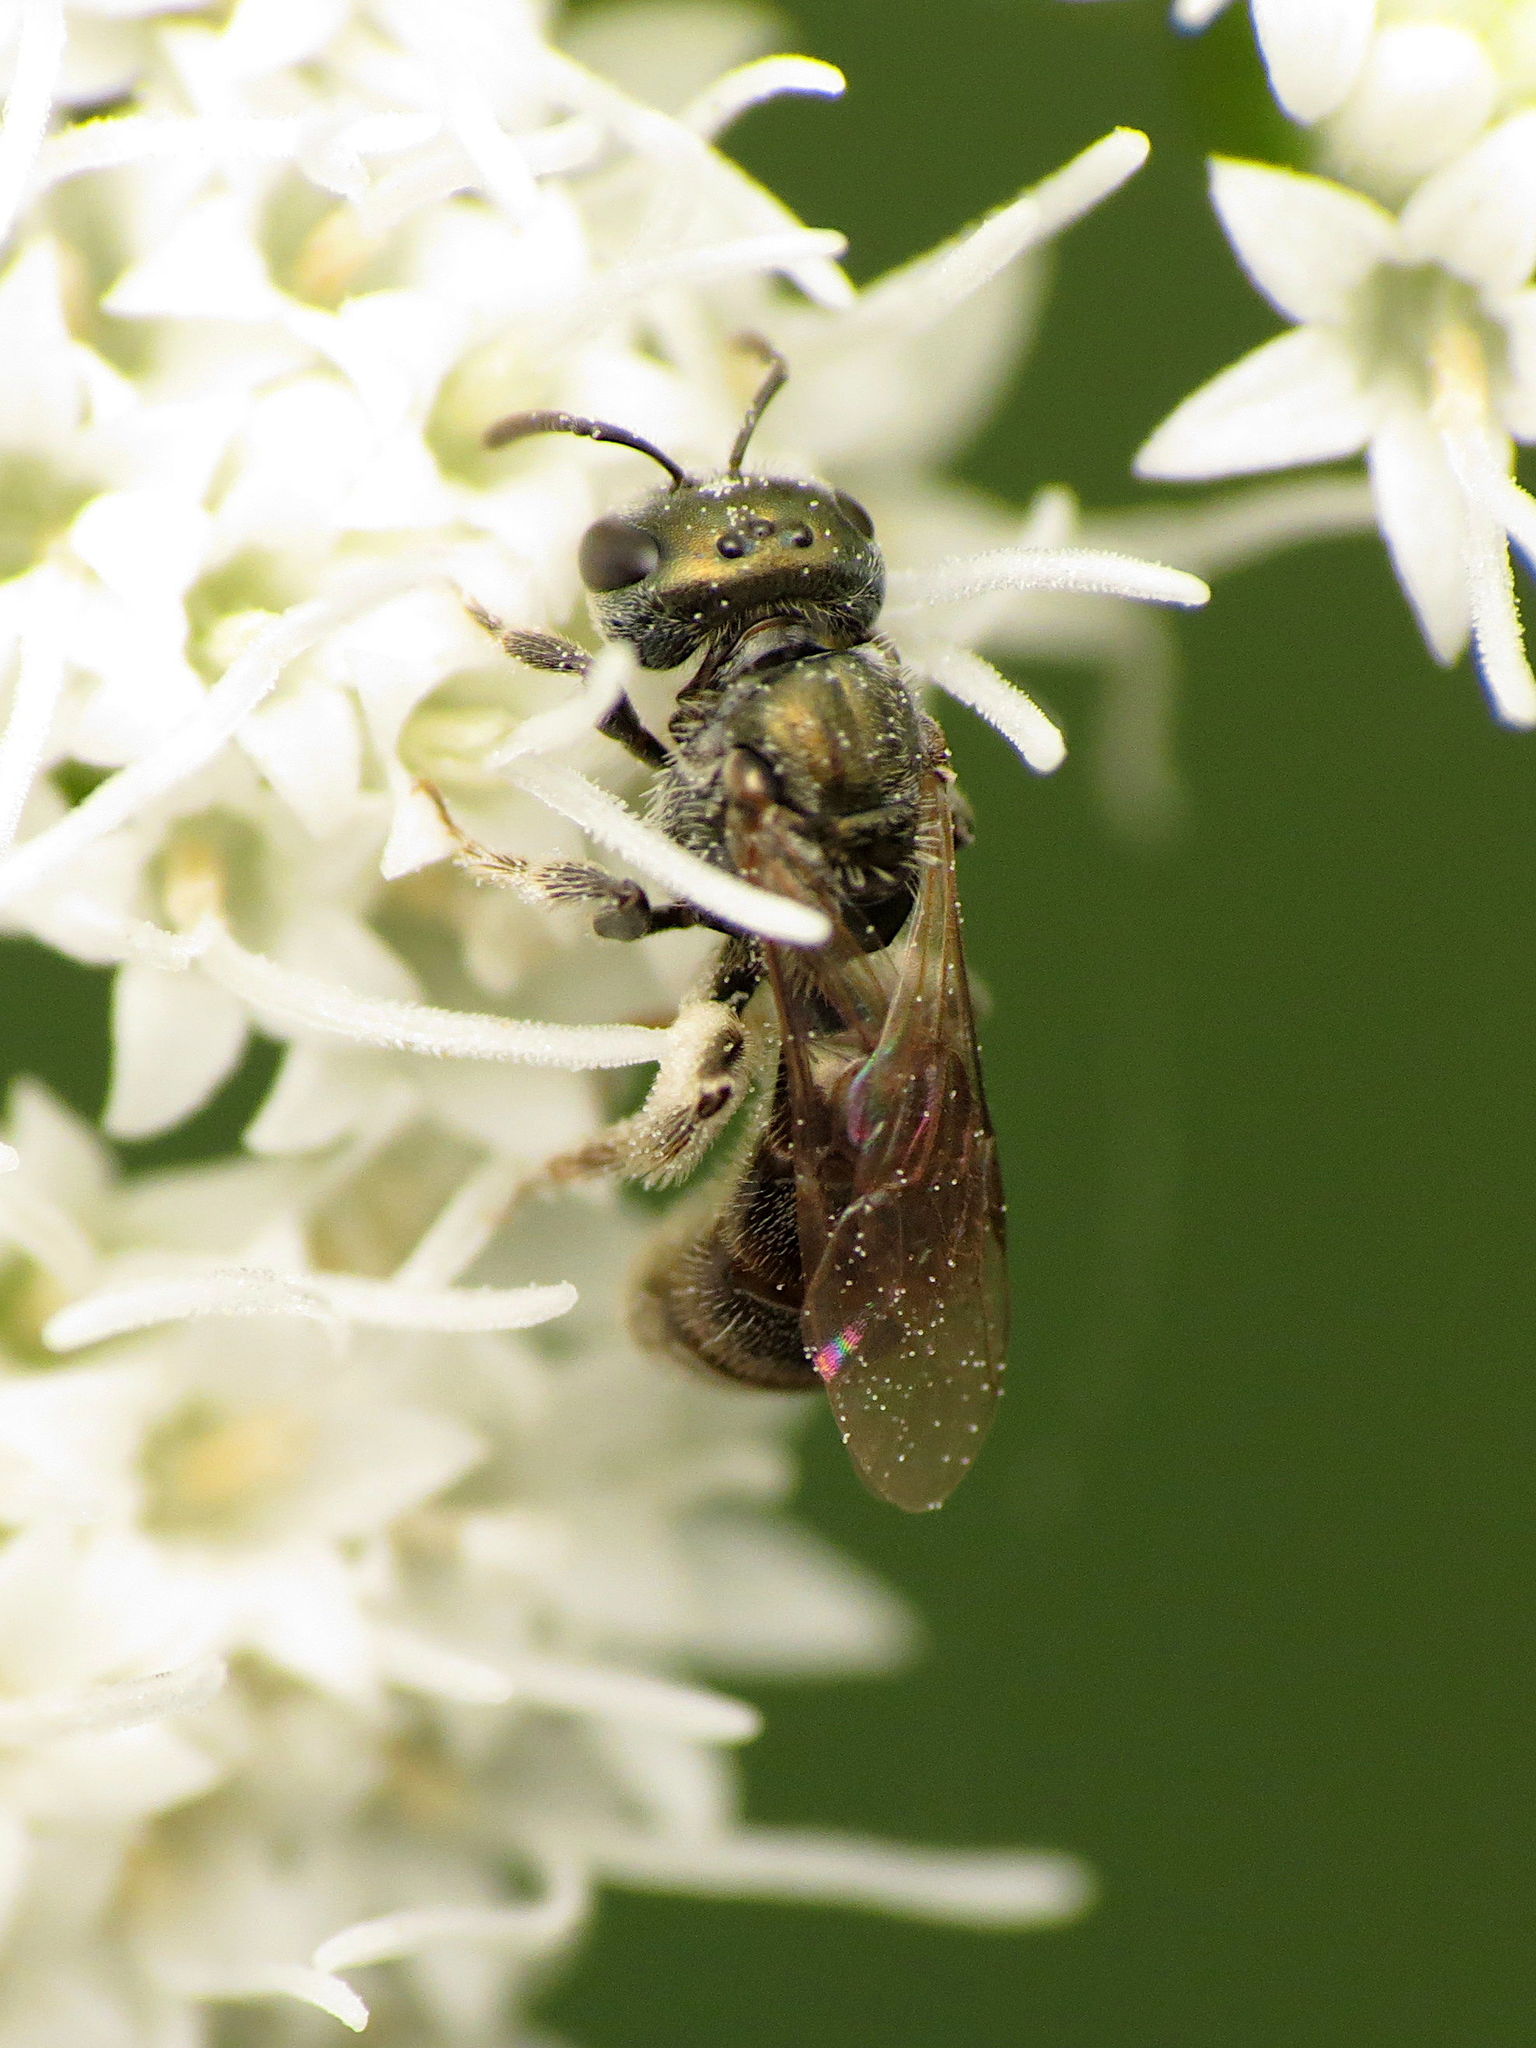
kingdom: Animalia
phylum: Arthropoda
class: Insecta
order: Hymenoptera
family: Halictidae
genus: Lasioglossum
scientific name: Lasioglossum imitatum
